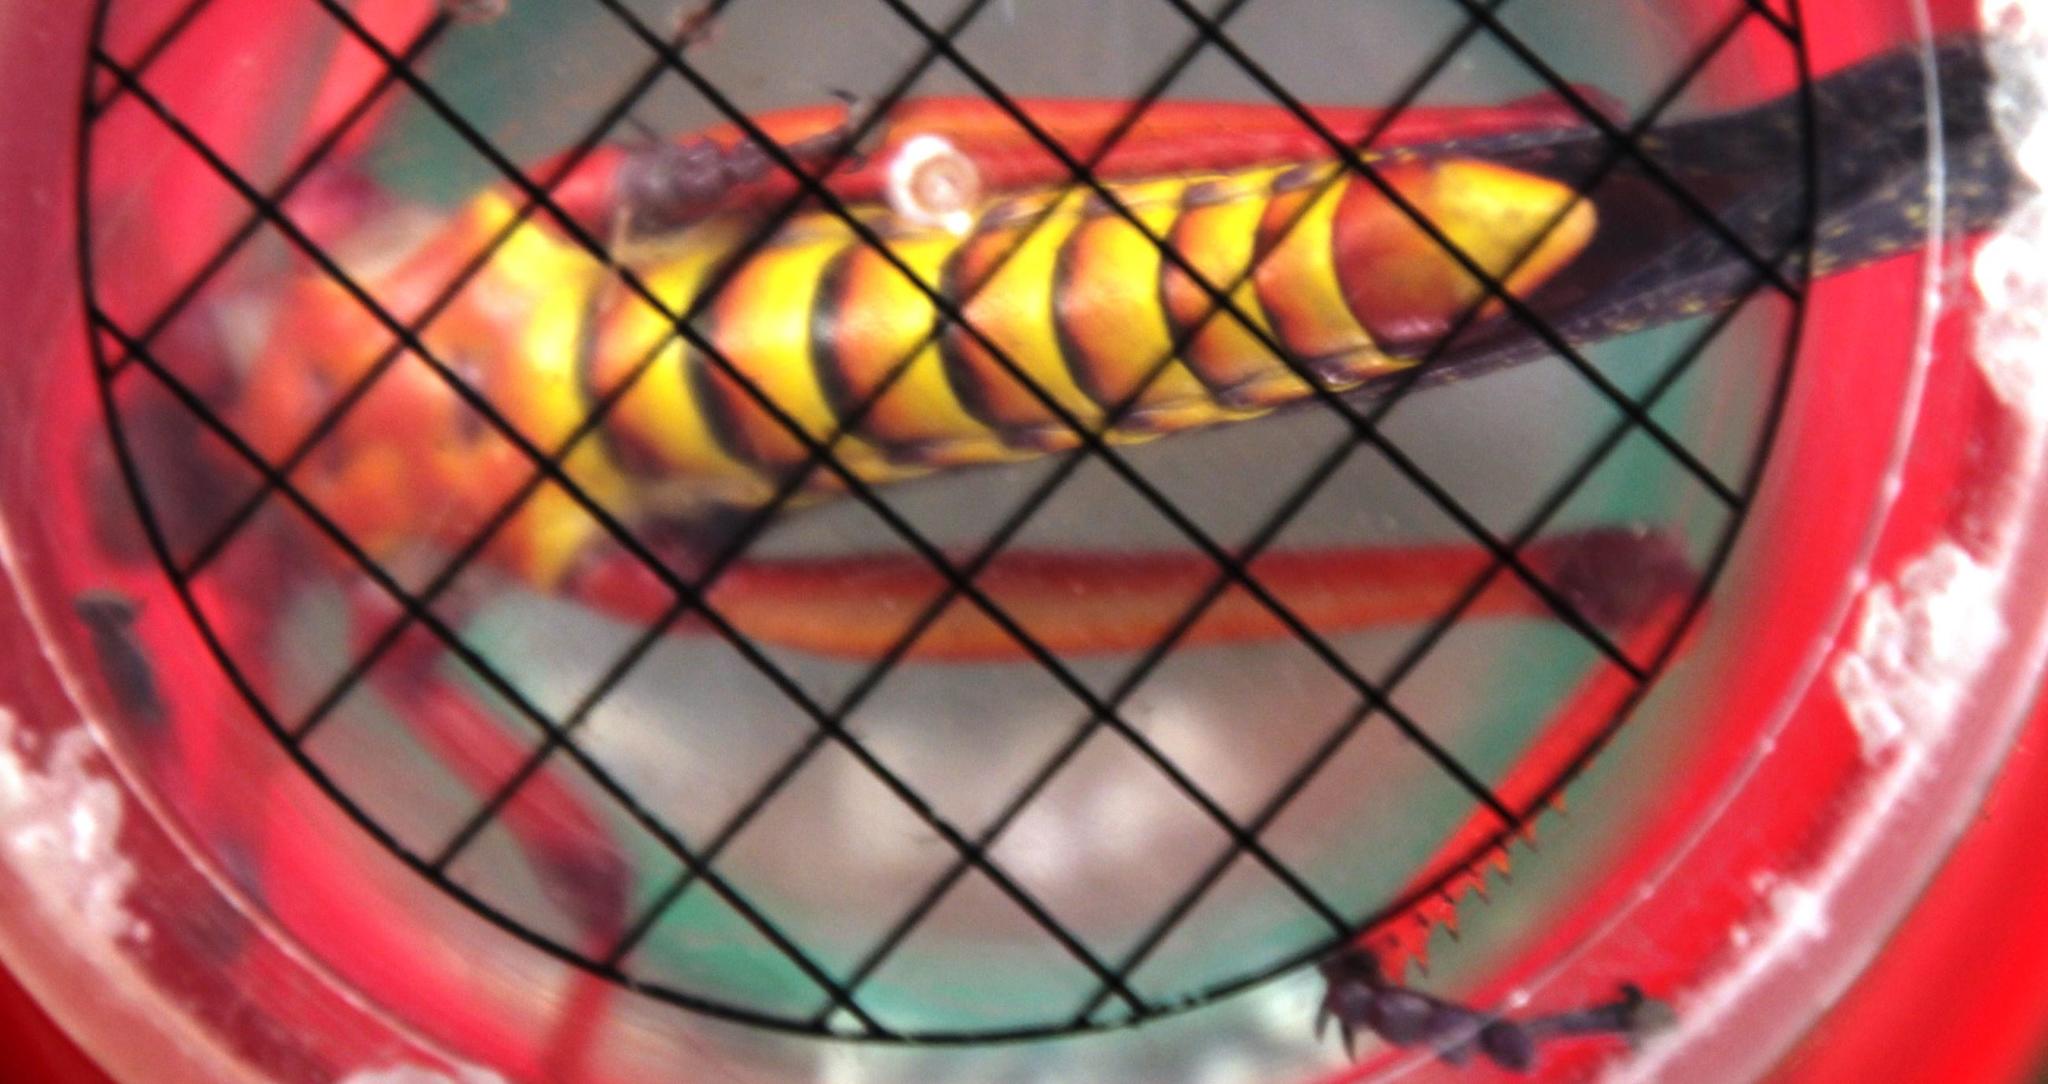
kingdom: Animalia
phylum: Arthropoda
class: Insecta
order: Orthoptera
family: Pyrgomorphidae
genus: Phymateus
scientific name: Phymateus morbillosus
